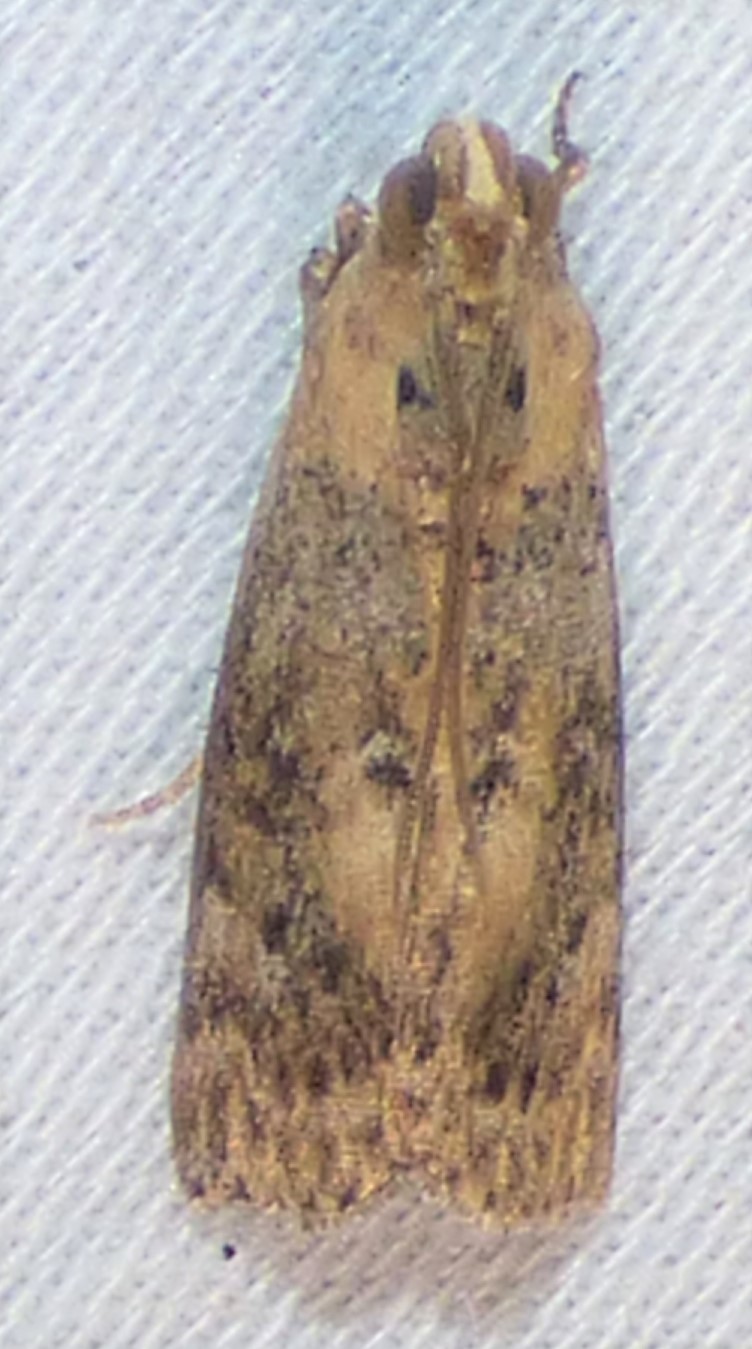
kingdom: Animalia
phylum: Arthropoda
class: Insecta
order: Lepidoptera
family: Pyralidae
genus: Sciota
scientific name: Sciota celtidella
